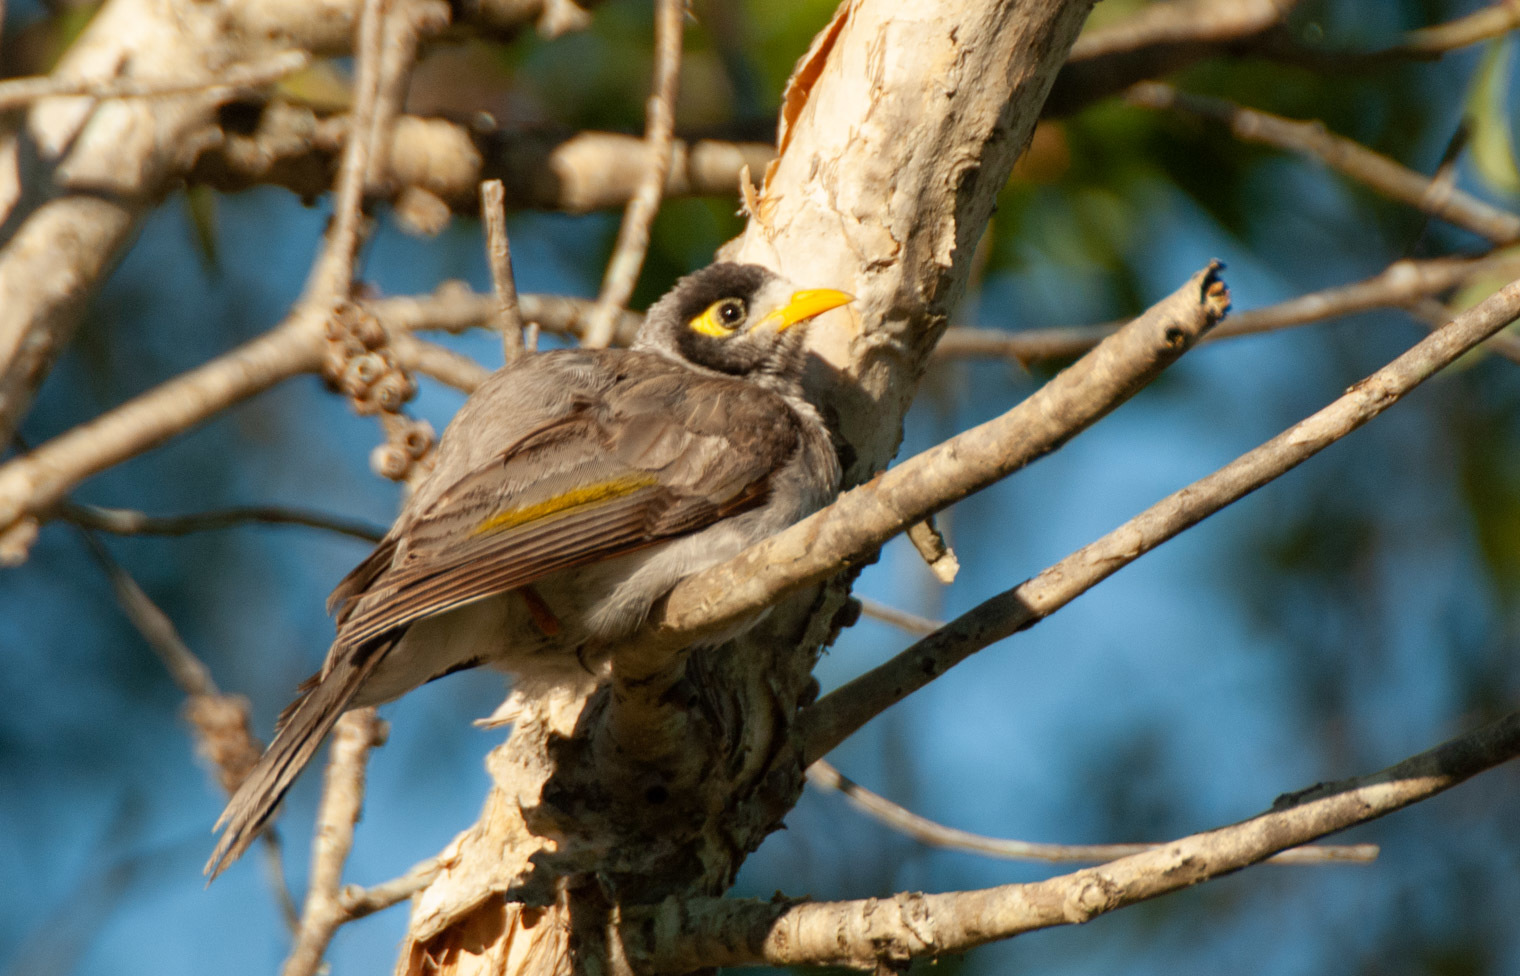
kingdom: Animalia
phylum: Chordata
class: Aves
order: Passeriformes
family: Meliphagidae
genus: Manorina
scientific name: Manorina melanocephala
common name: Noisy miner
